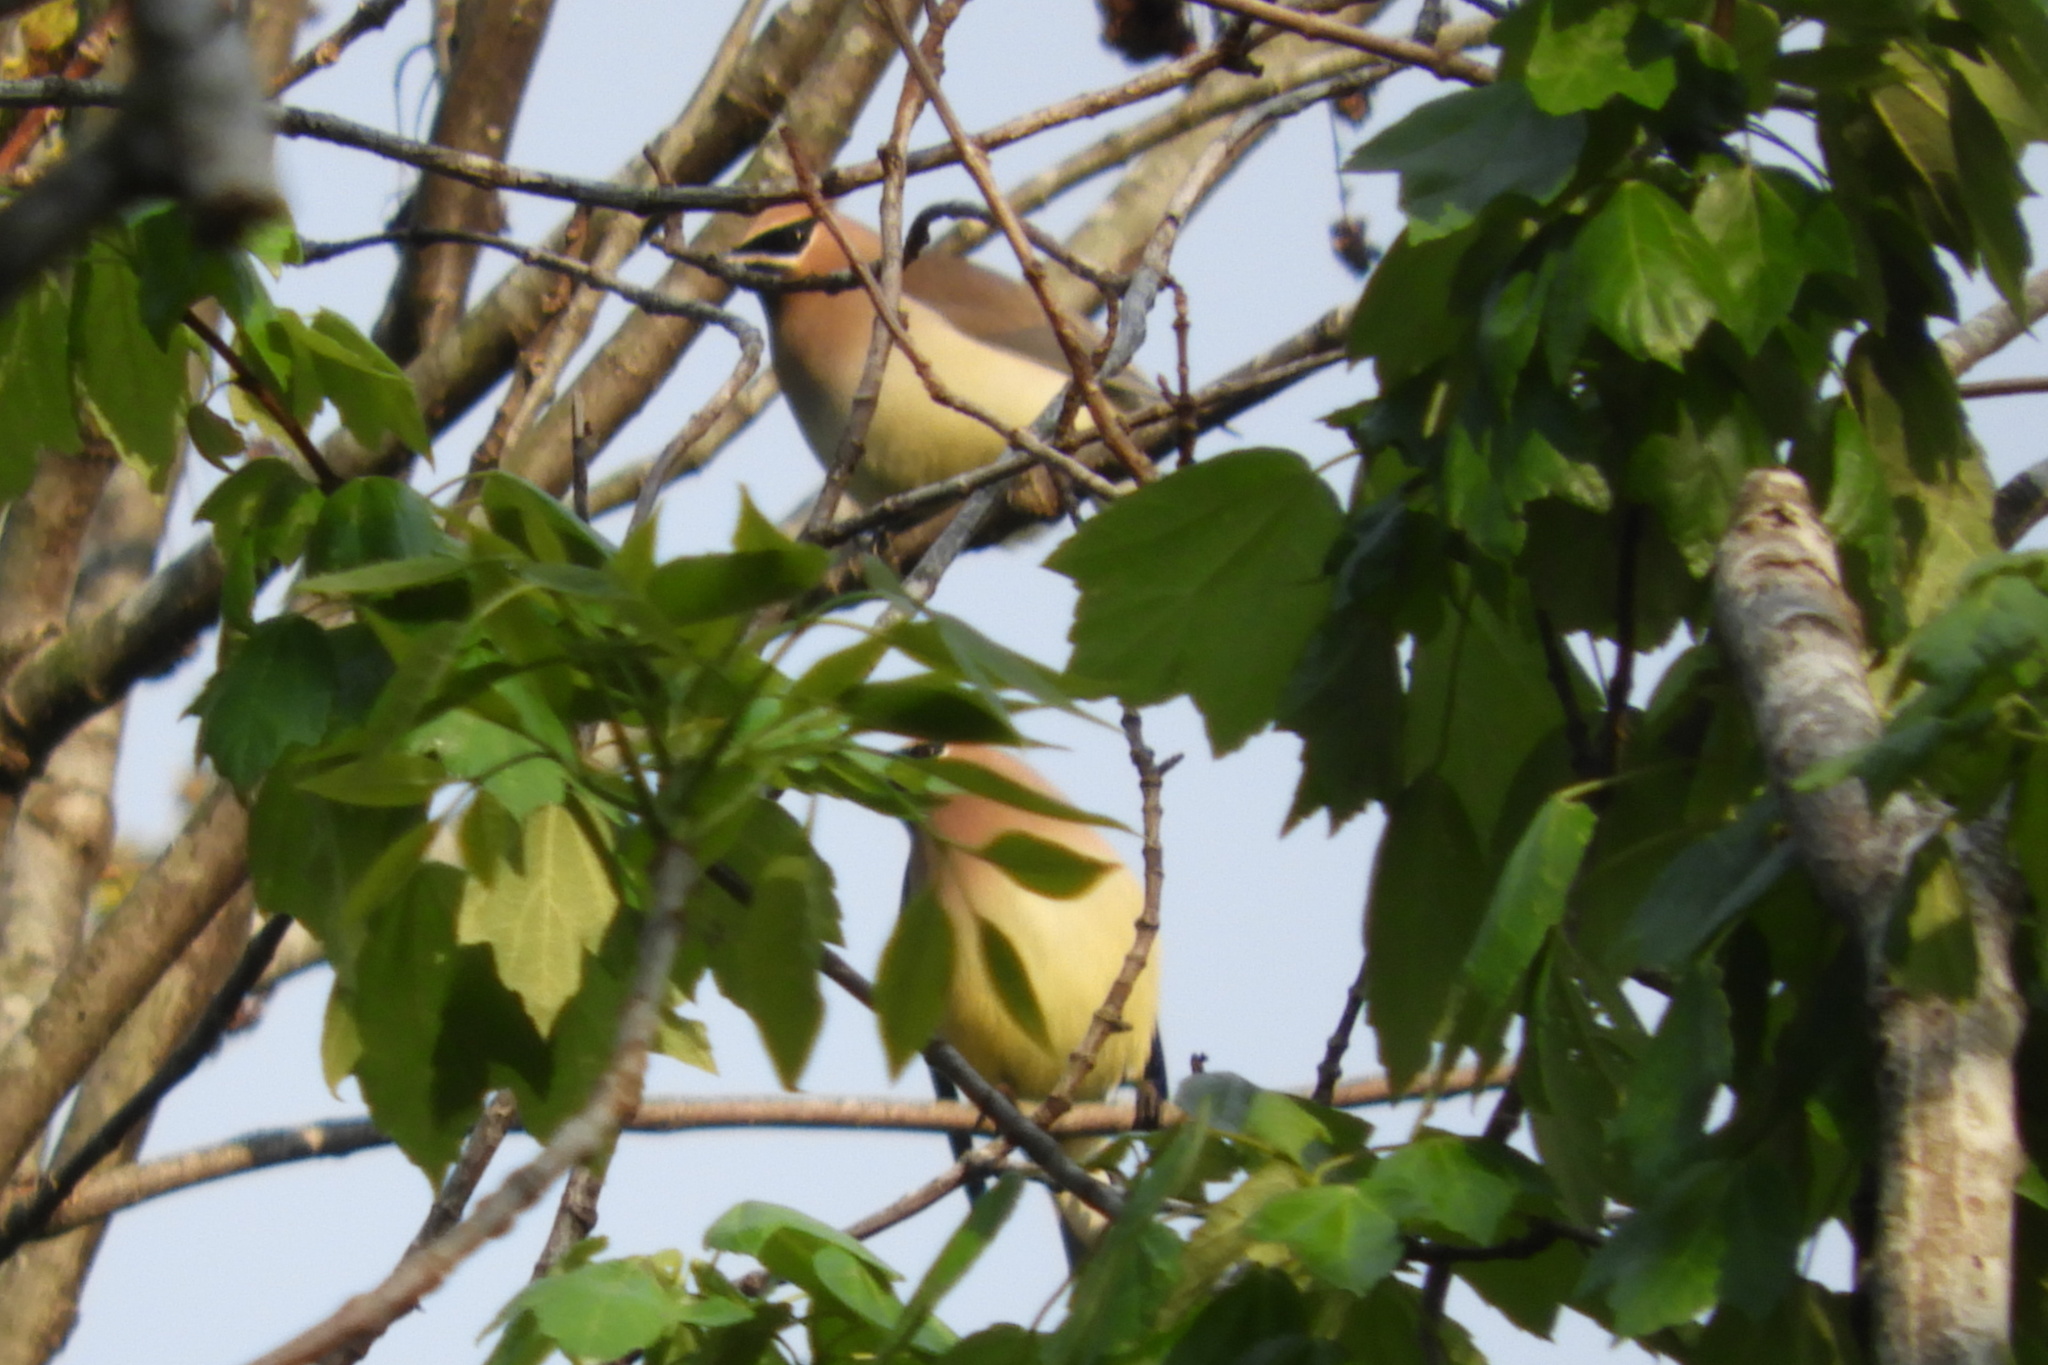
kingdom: Animalia
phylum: Chordata
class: Aves
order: Passeriformes
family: Bombycillidae
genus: Bombycilla
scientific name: Bombycilla cedrorum
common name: Cedar waxwing
